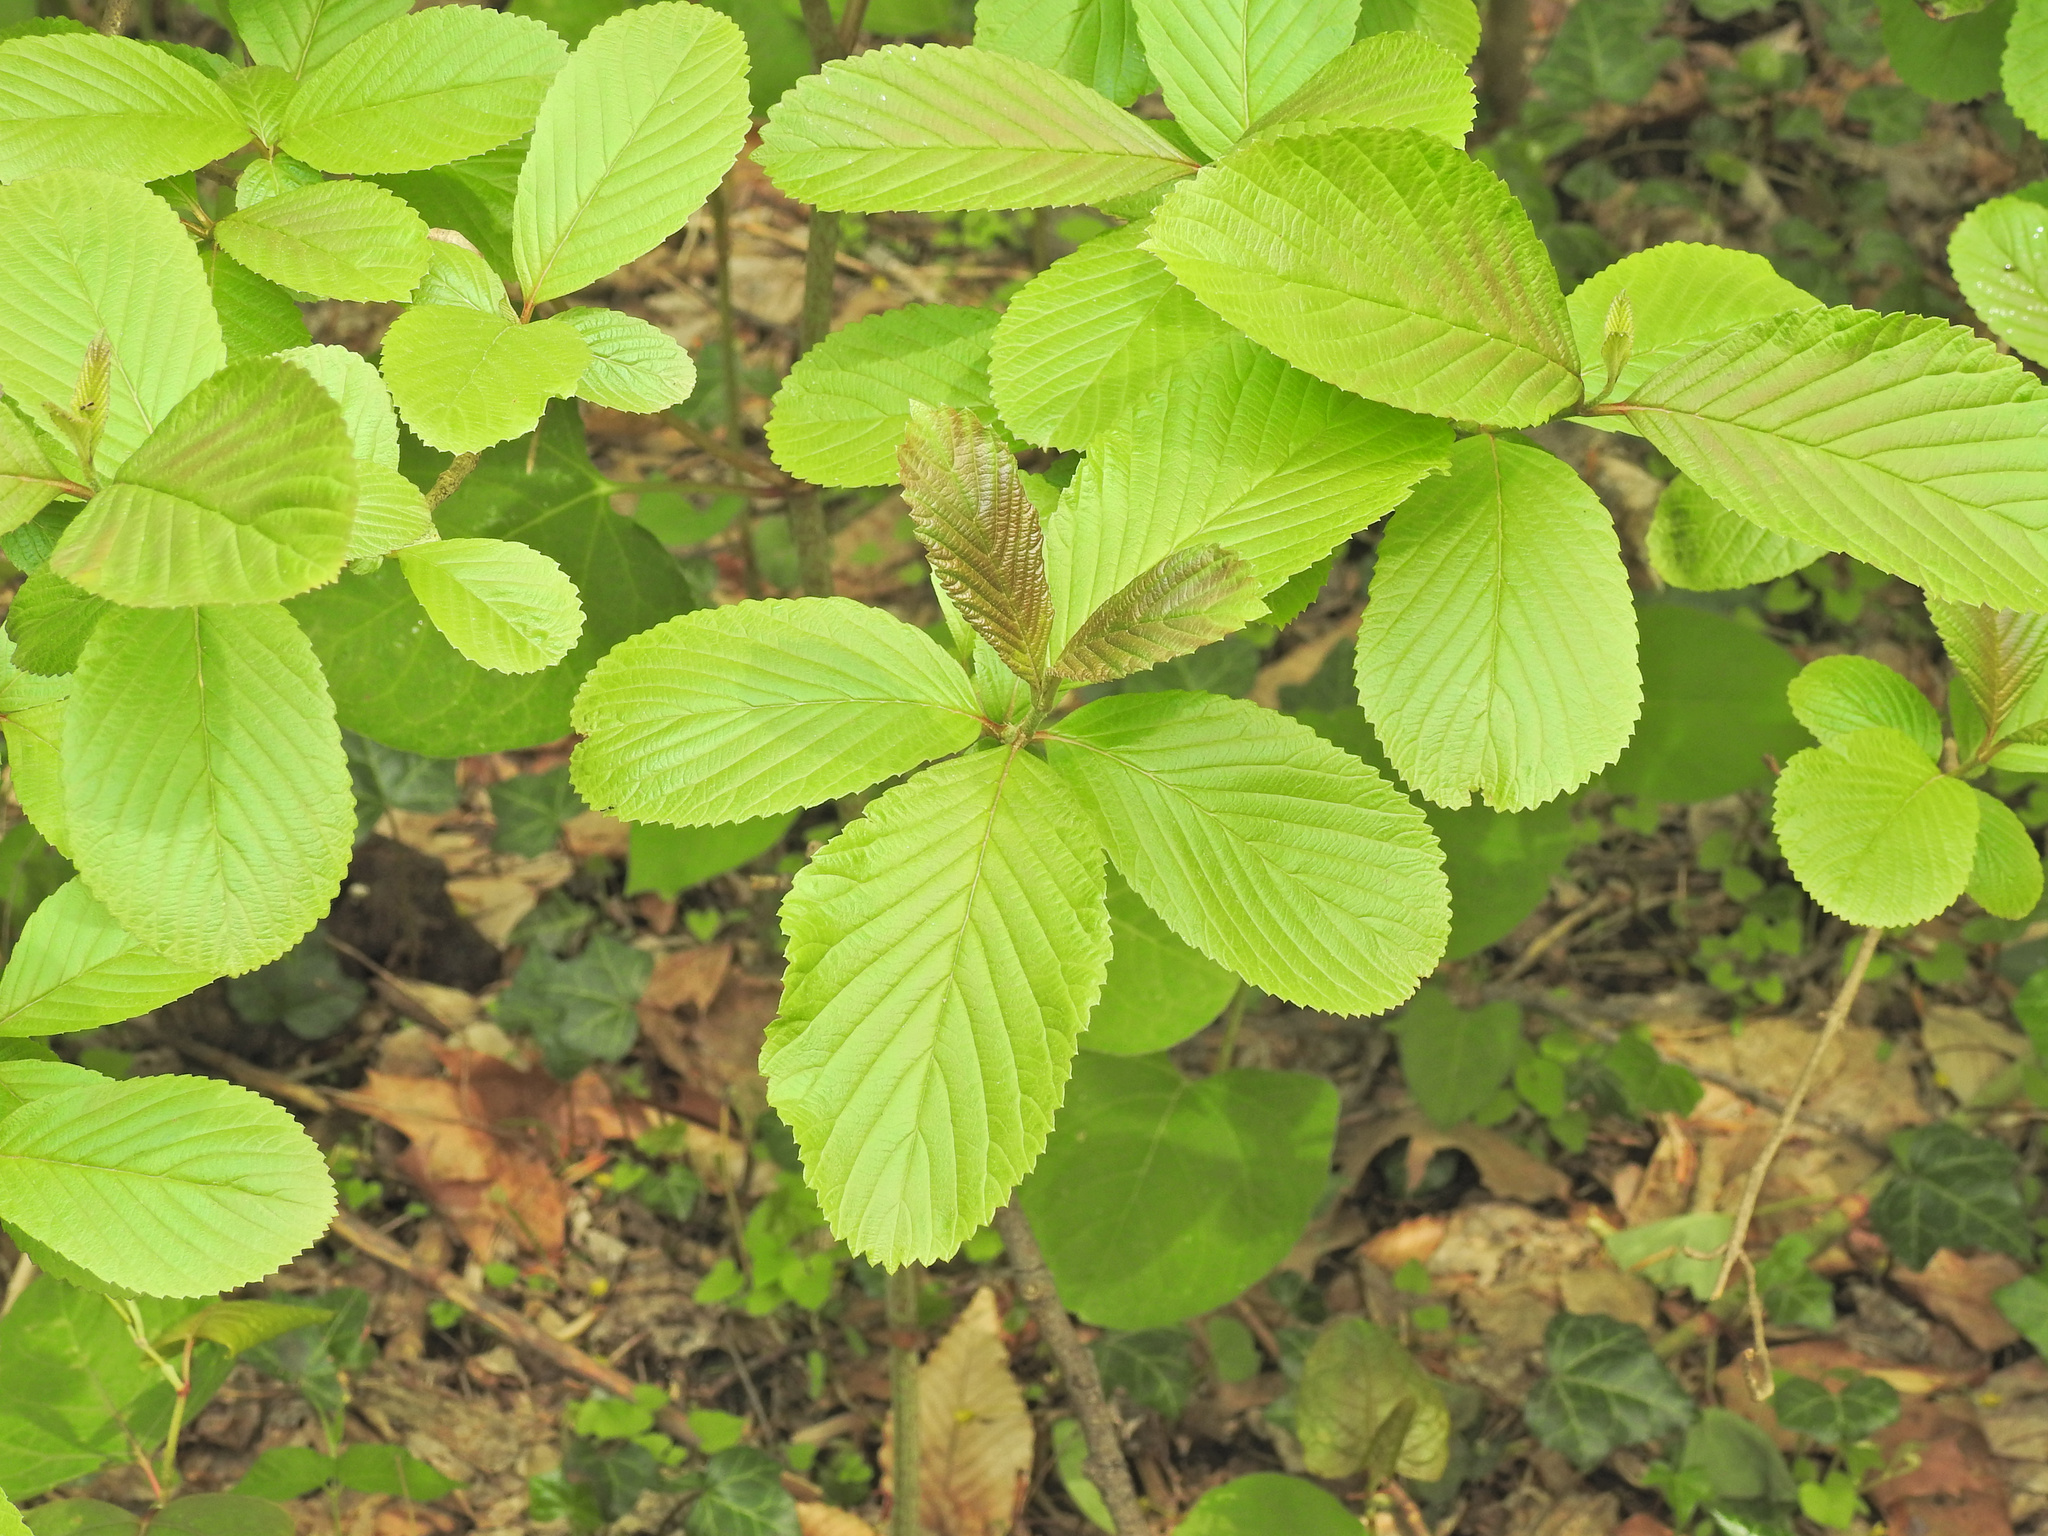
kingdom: Plantae
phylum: Tracheophyta
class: Magnoliopsida
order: Dipsacales
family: Viburnaceae
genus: Viburnum
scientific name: Viburnum sieboldii
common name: Siebold's arrowwood
